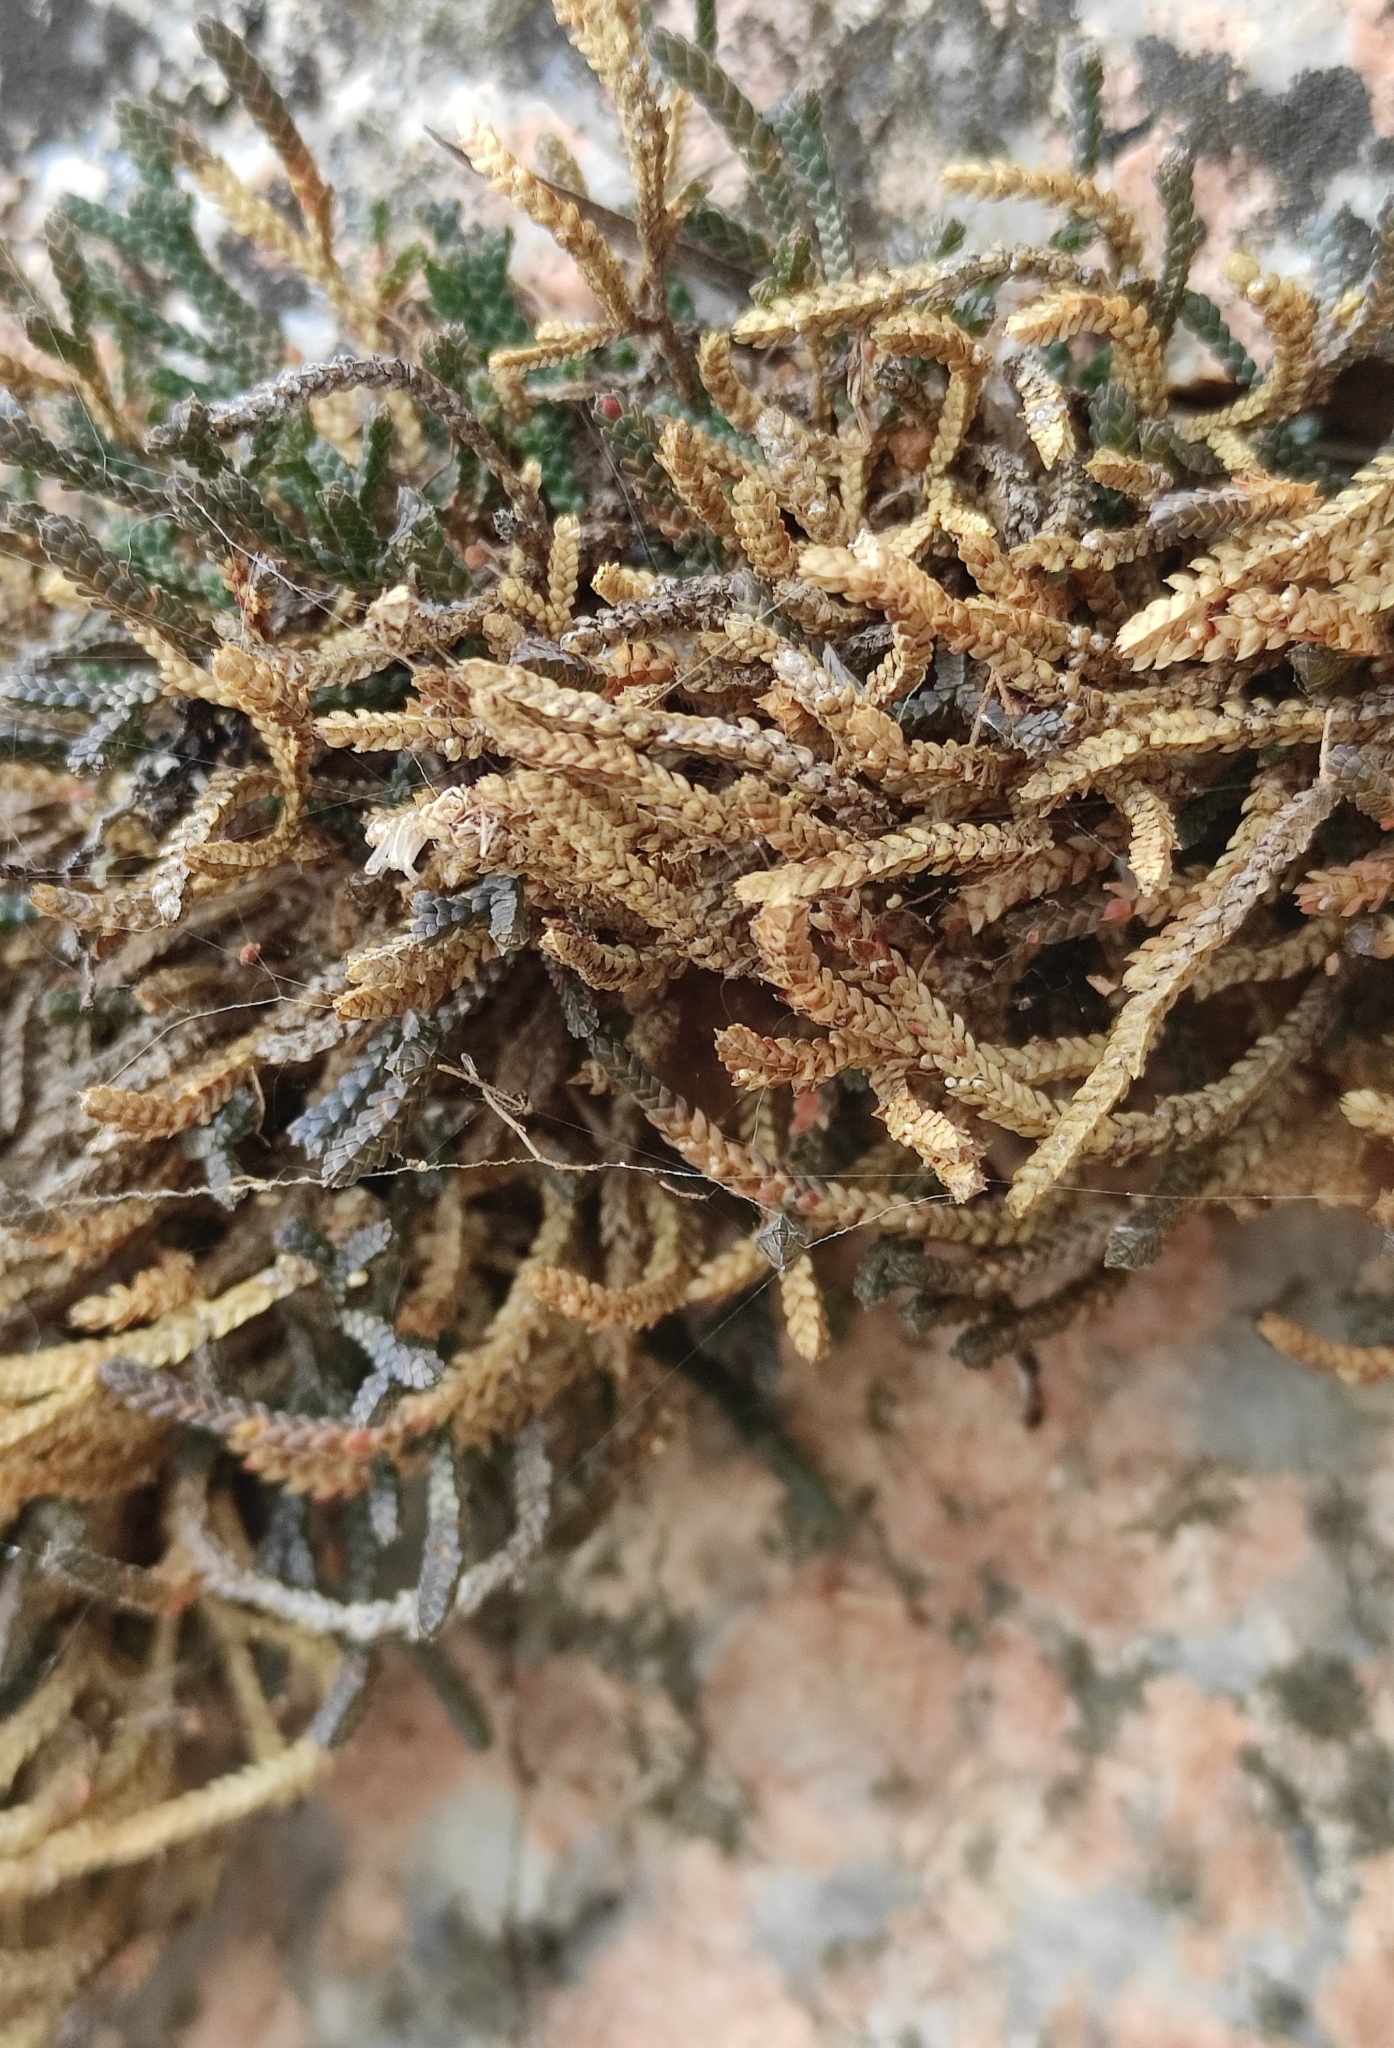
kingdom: Plantae
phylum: Tracheophyta
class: Lycopodiopsida
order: Selaginellales
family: Selaginellaceae
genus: Selaginella
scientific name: Selaginella sanguinolenta
